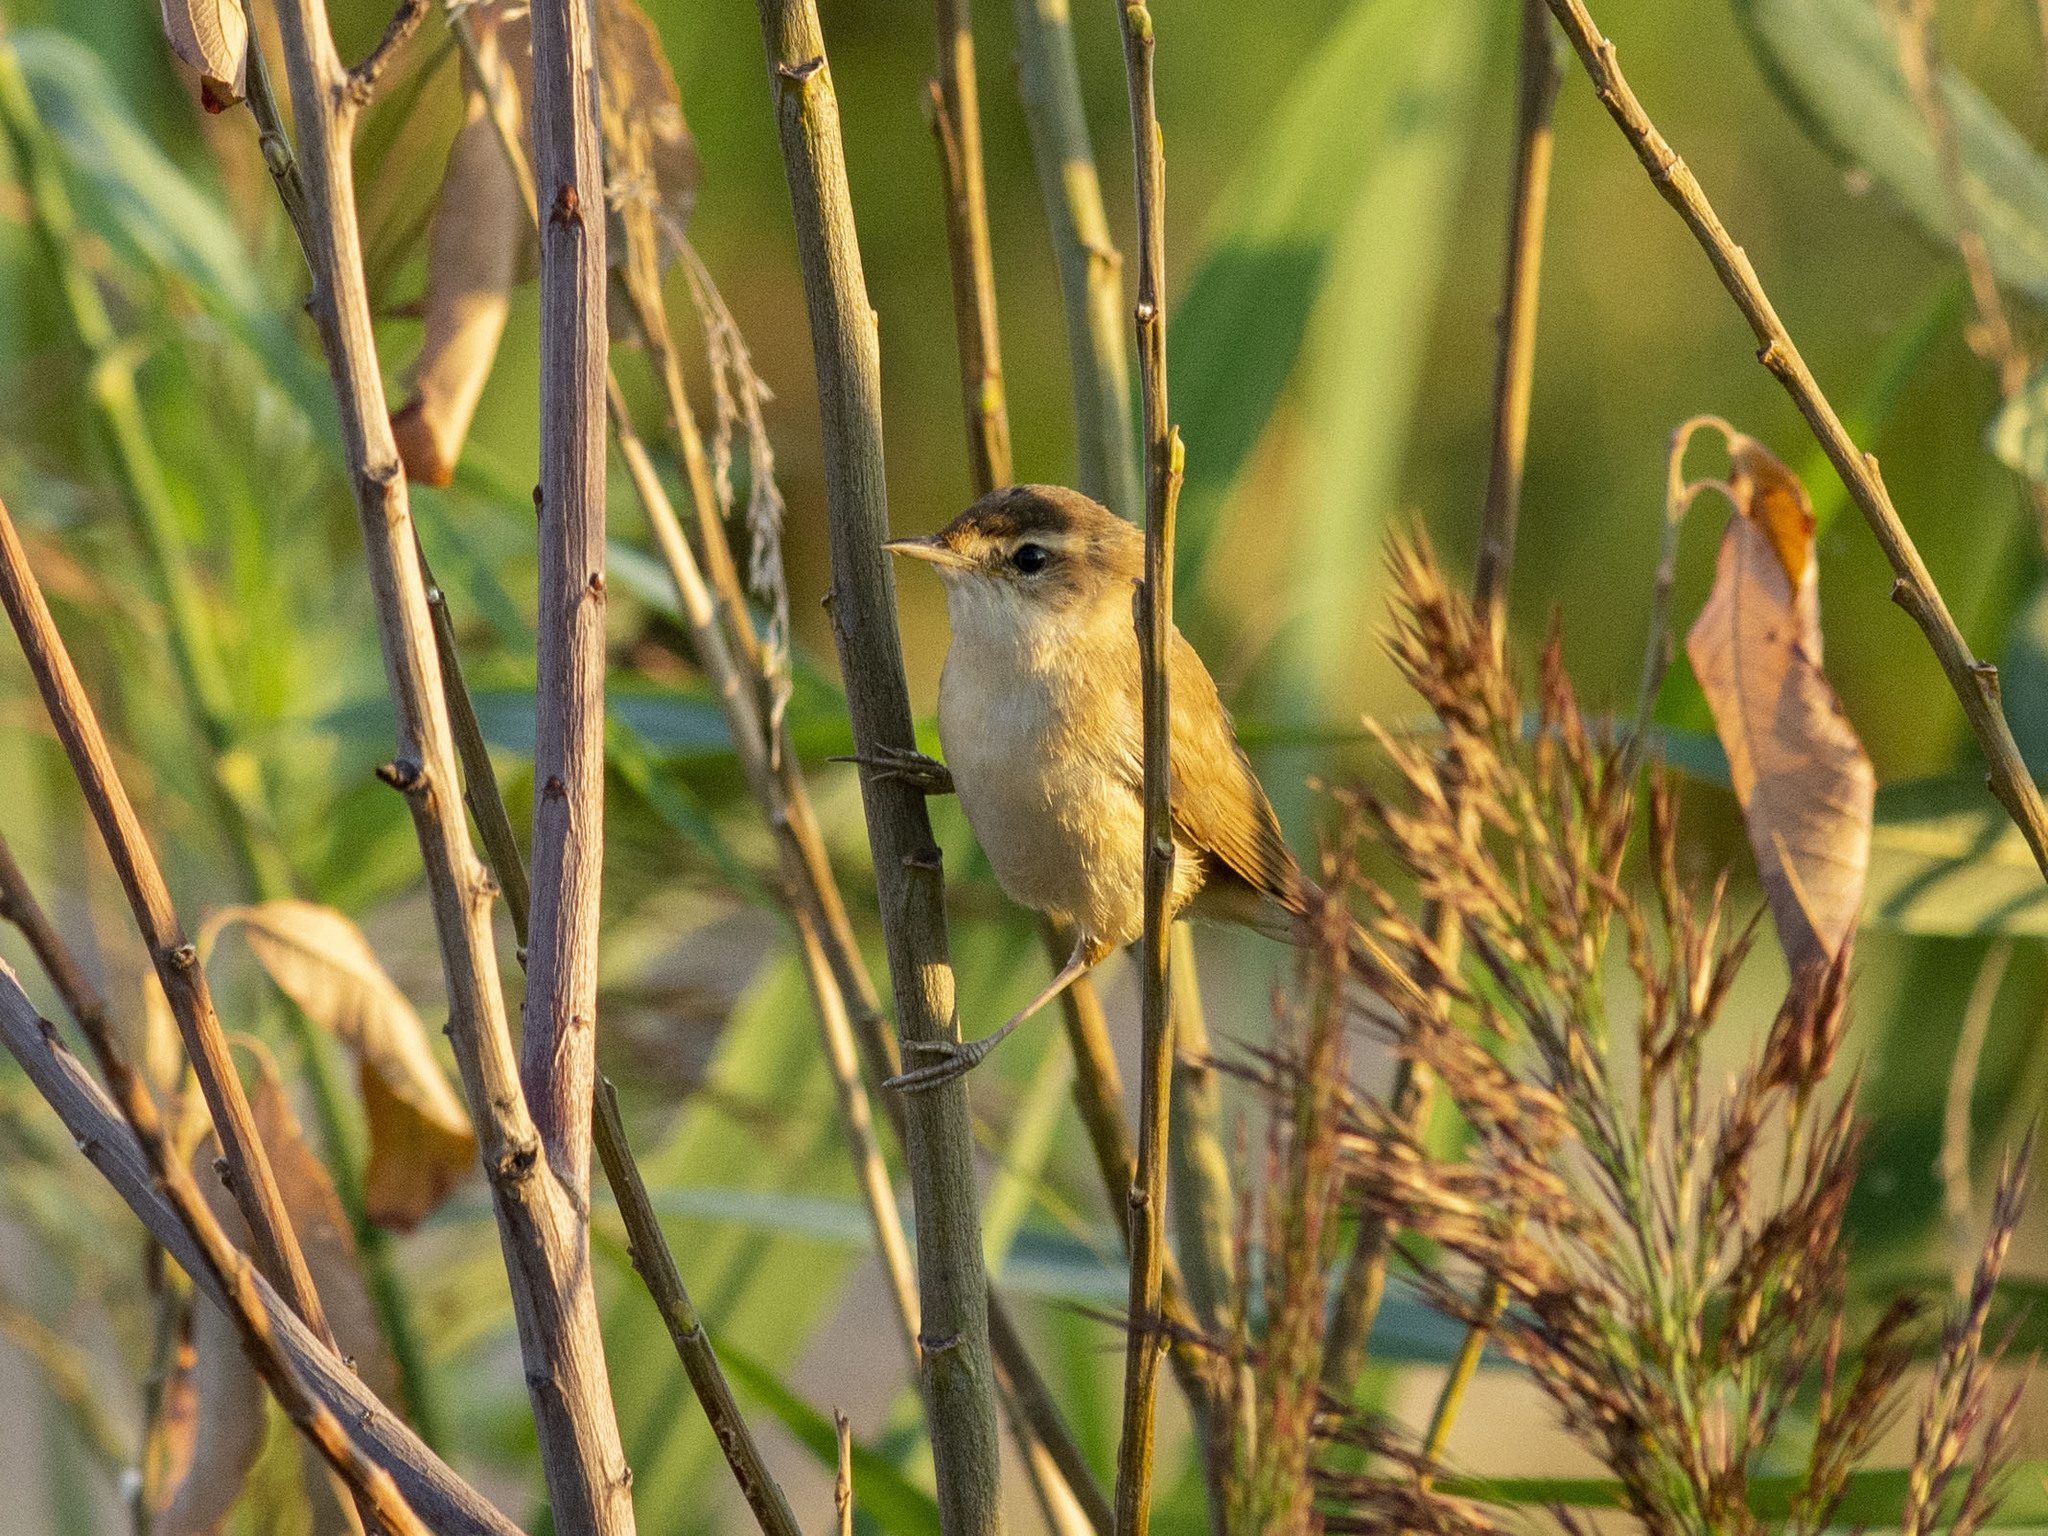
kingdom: Animalia
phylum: Chordata
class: Aves
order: Passeriformes
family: Acrocephalidae
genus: Acrocephalus
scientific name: Acrocephalus agricola
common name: Paddyfield warbler
